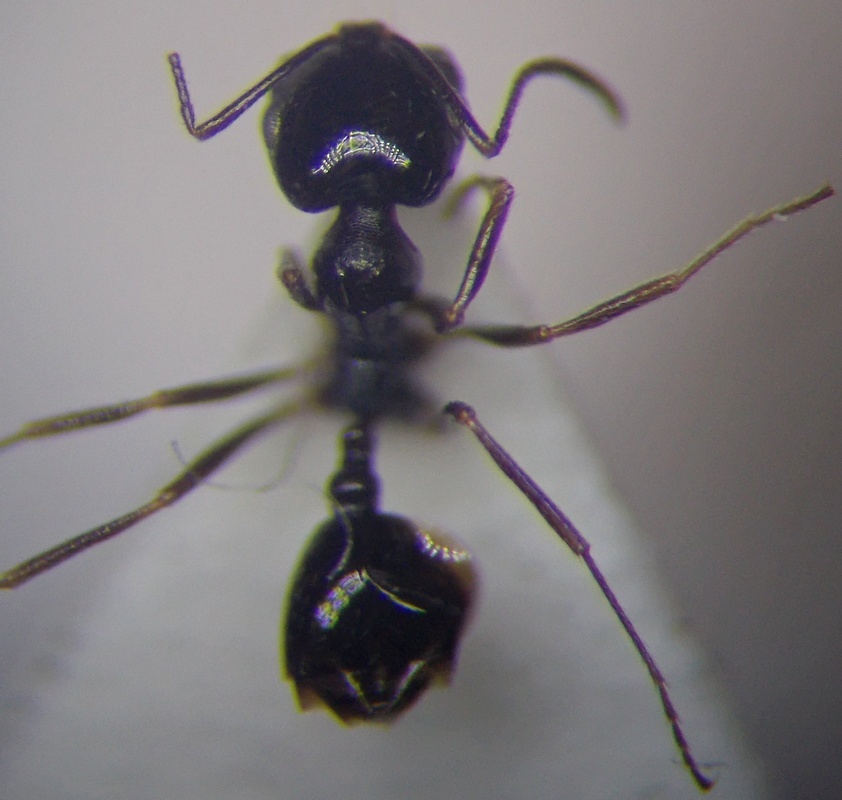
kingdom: Animalia
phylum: Arthropoda
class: Insecta
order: Hymenoptera
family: Formicidae
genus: Monomorium
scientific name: Monomorium barbatulum
